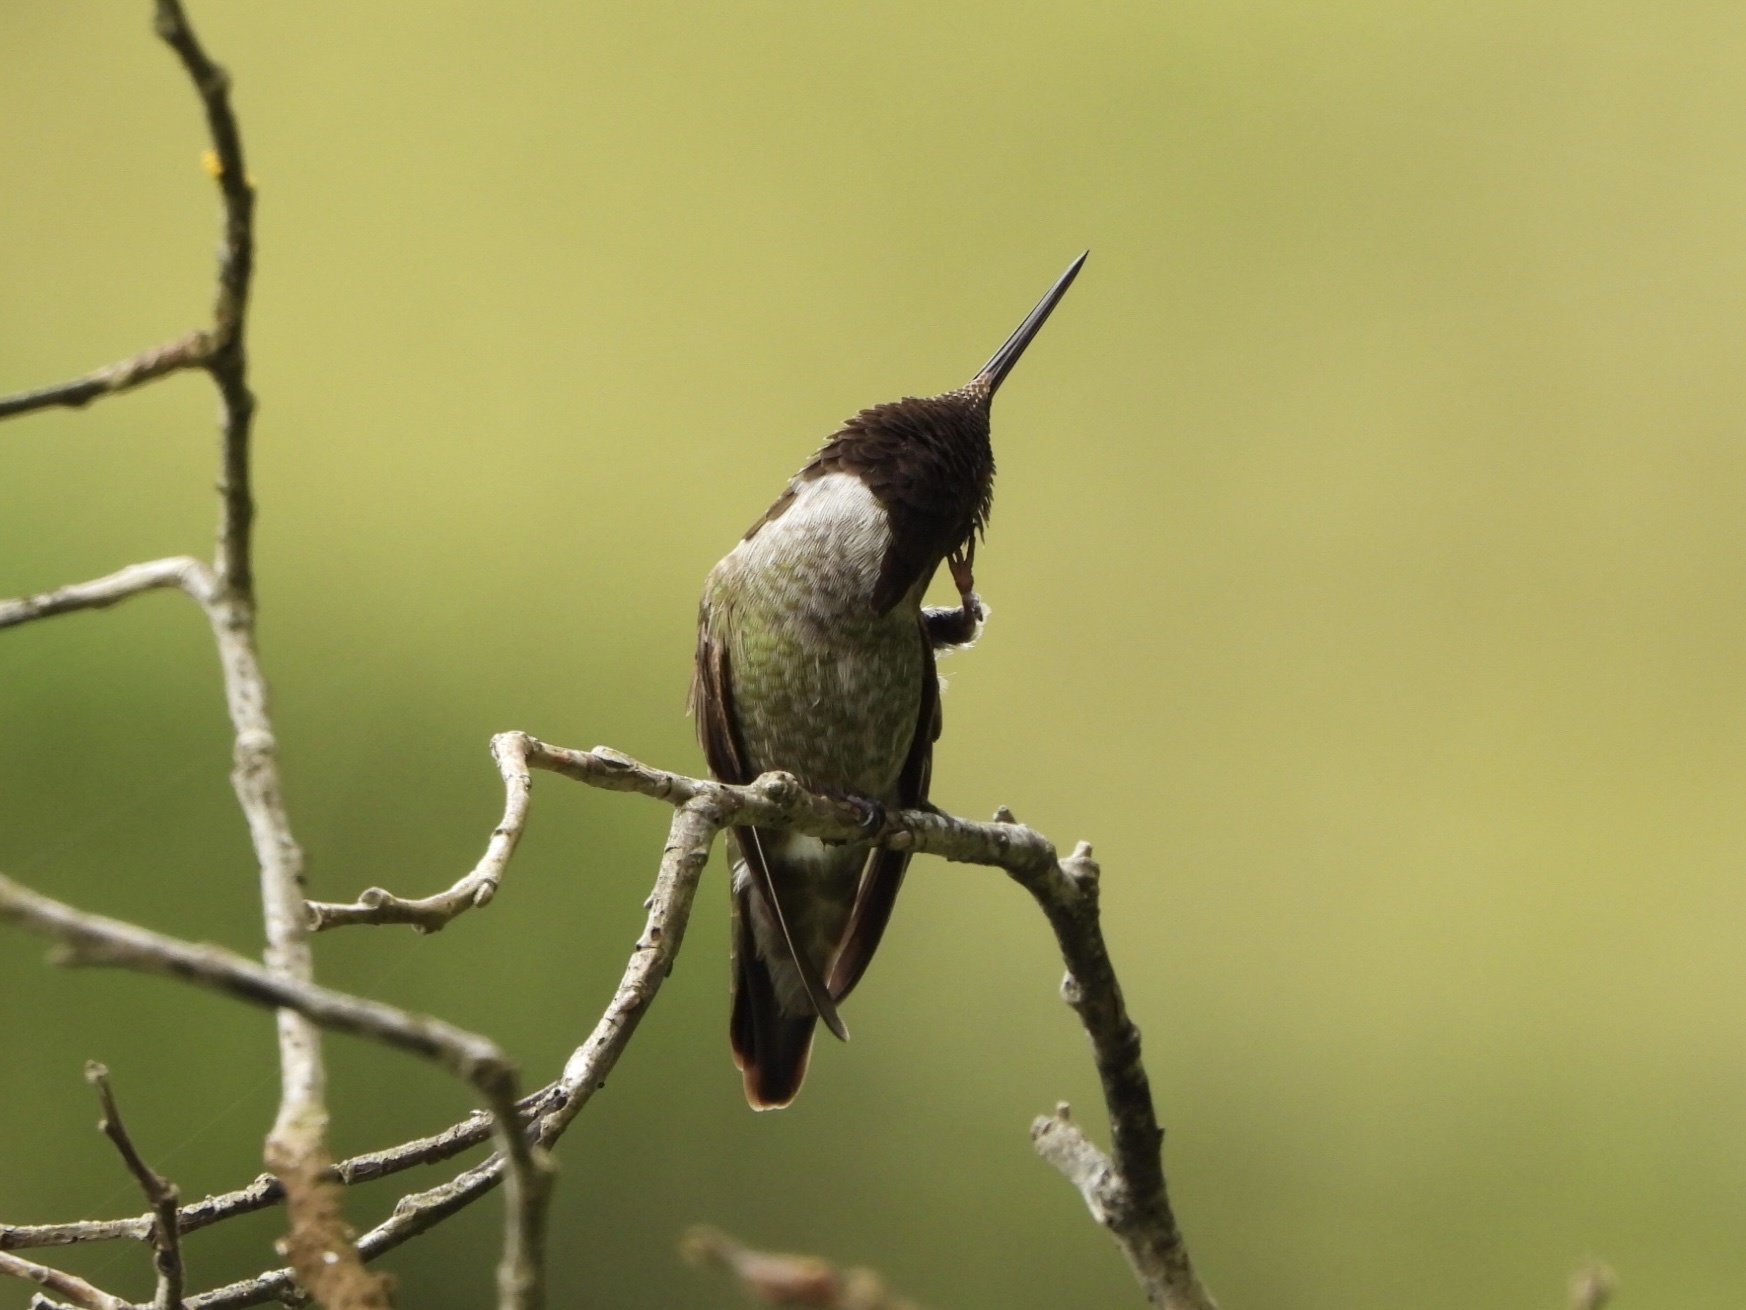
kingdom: Animalia
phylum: Chordata
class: Aves
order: Apodiformes
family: Trochilidae
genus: Calypte
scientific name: Calypte anna
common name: Anna's hummingbird
